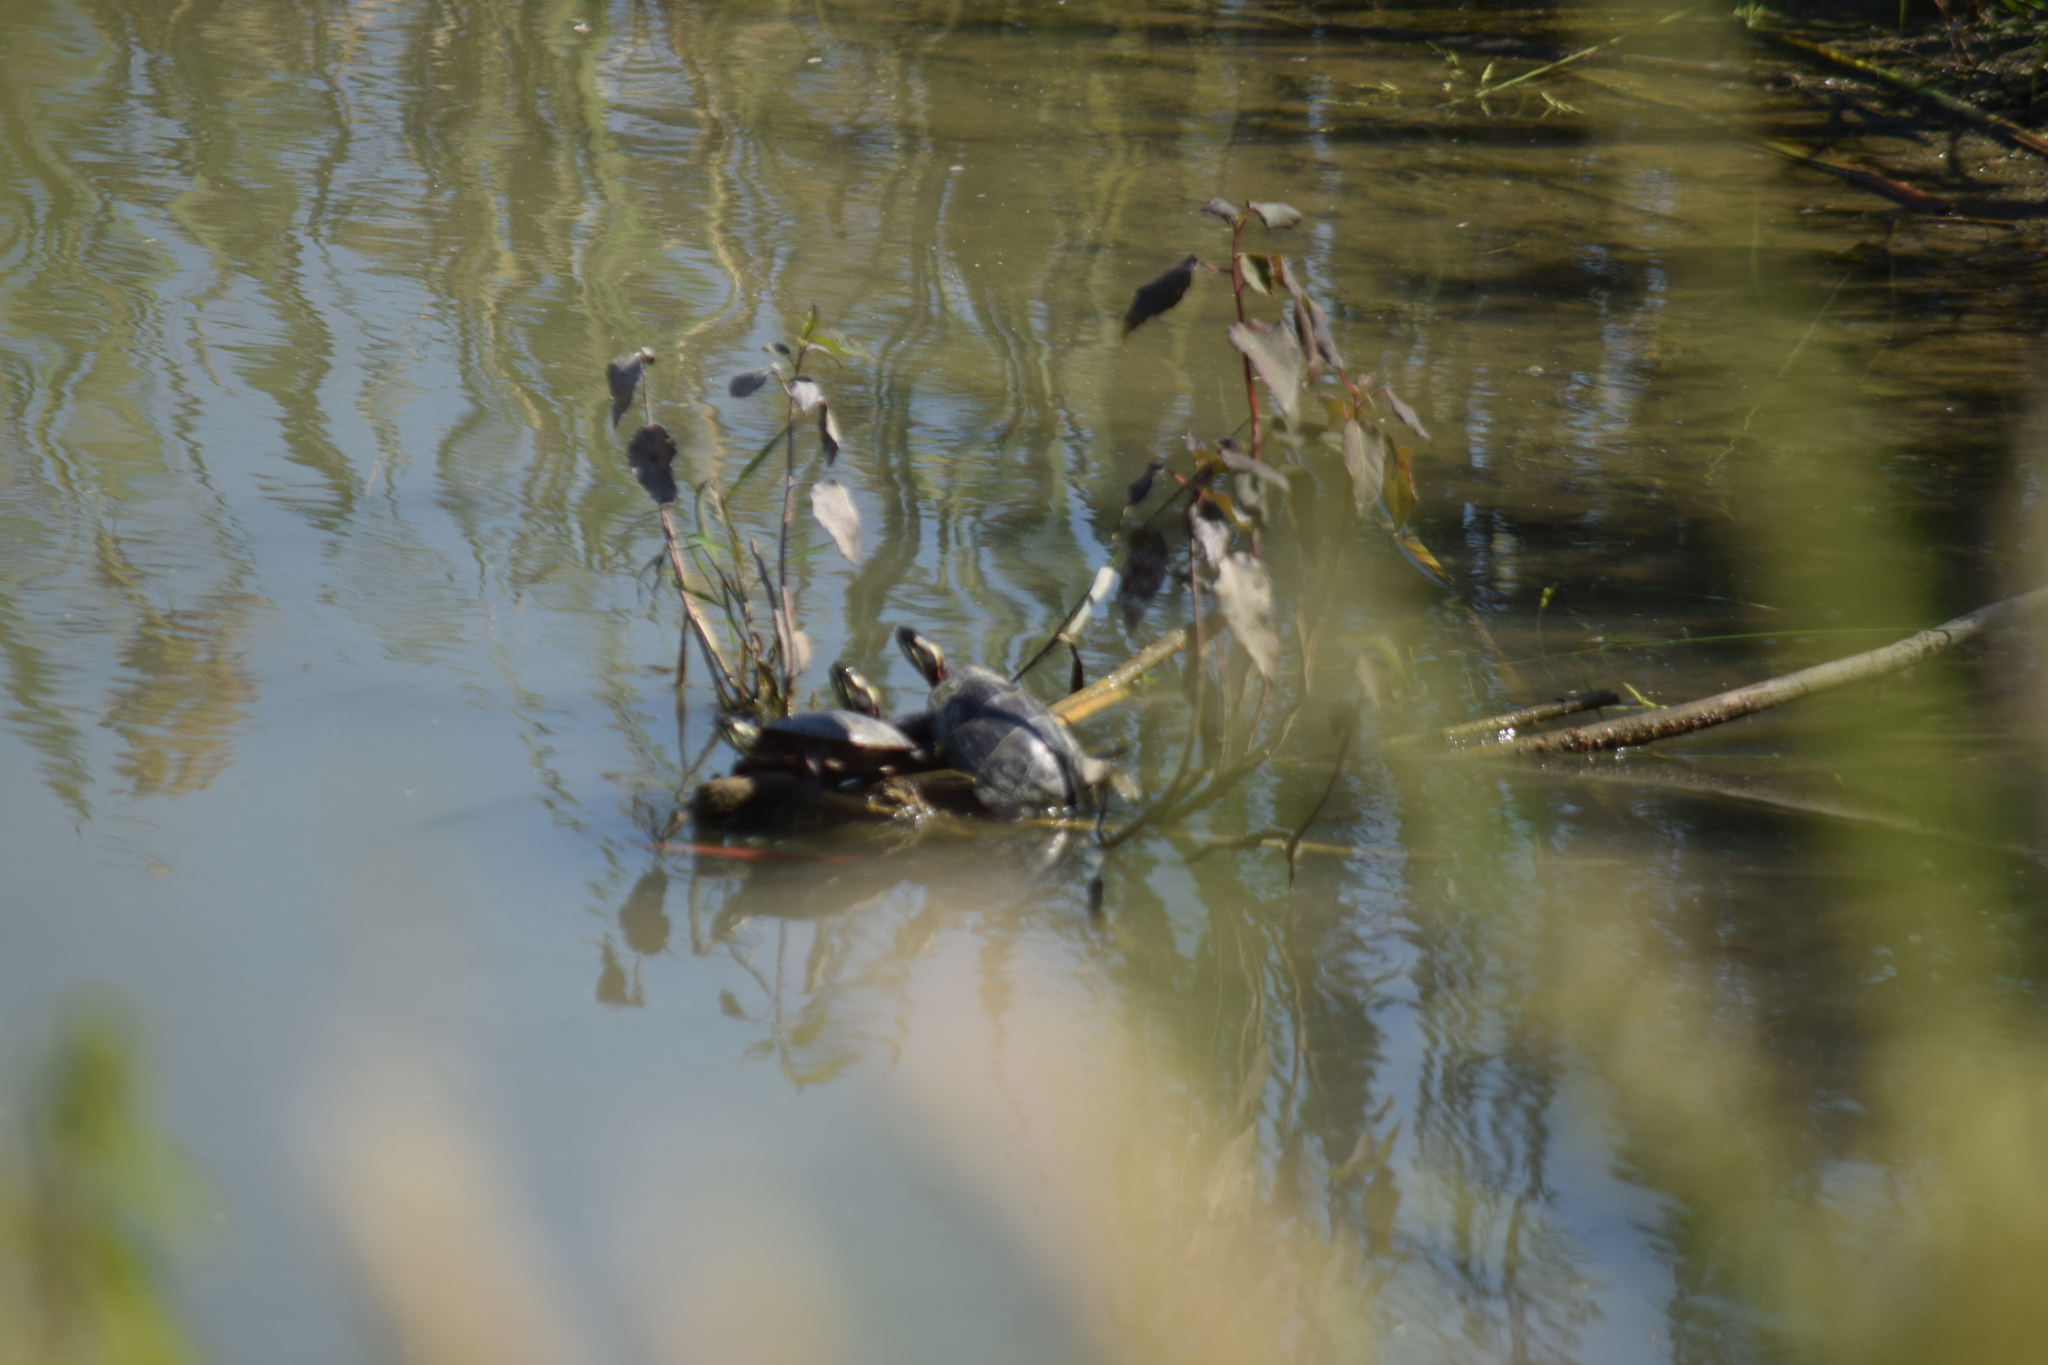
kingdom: Animalia
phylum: Chordata
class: Testudines
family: Emydidae
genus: Chrysemys
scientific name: Chrysemys picta
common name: Painted turtle
